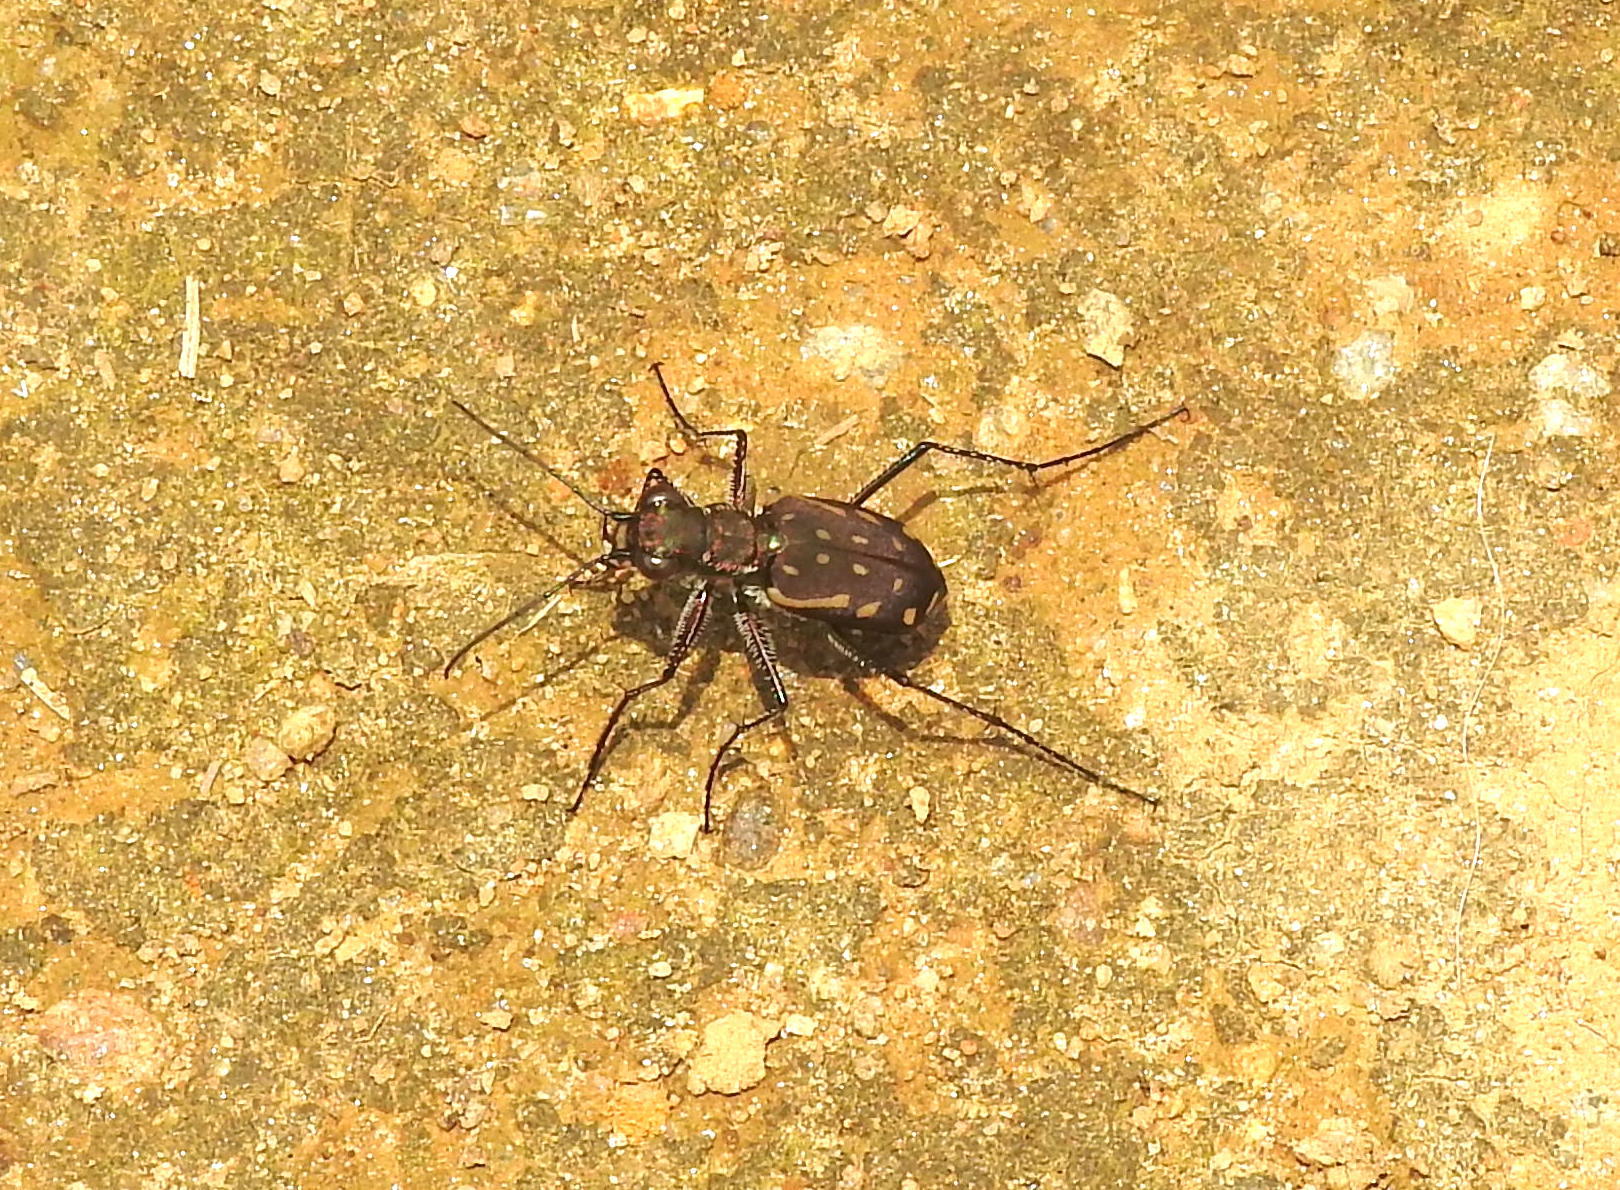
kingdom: Animalia
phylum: Arthropoda
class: Insecta
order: Coleoptera
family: Carabidae
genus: Lophyra
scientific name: Lophyra striolata
